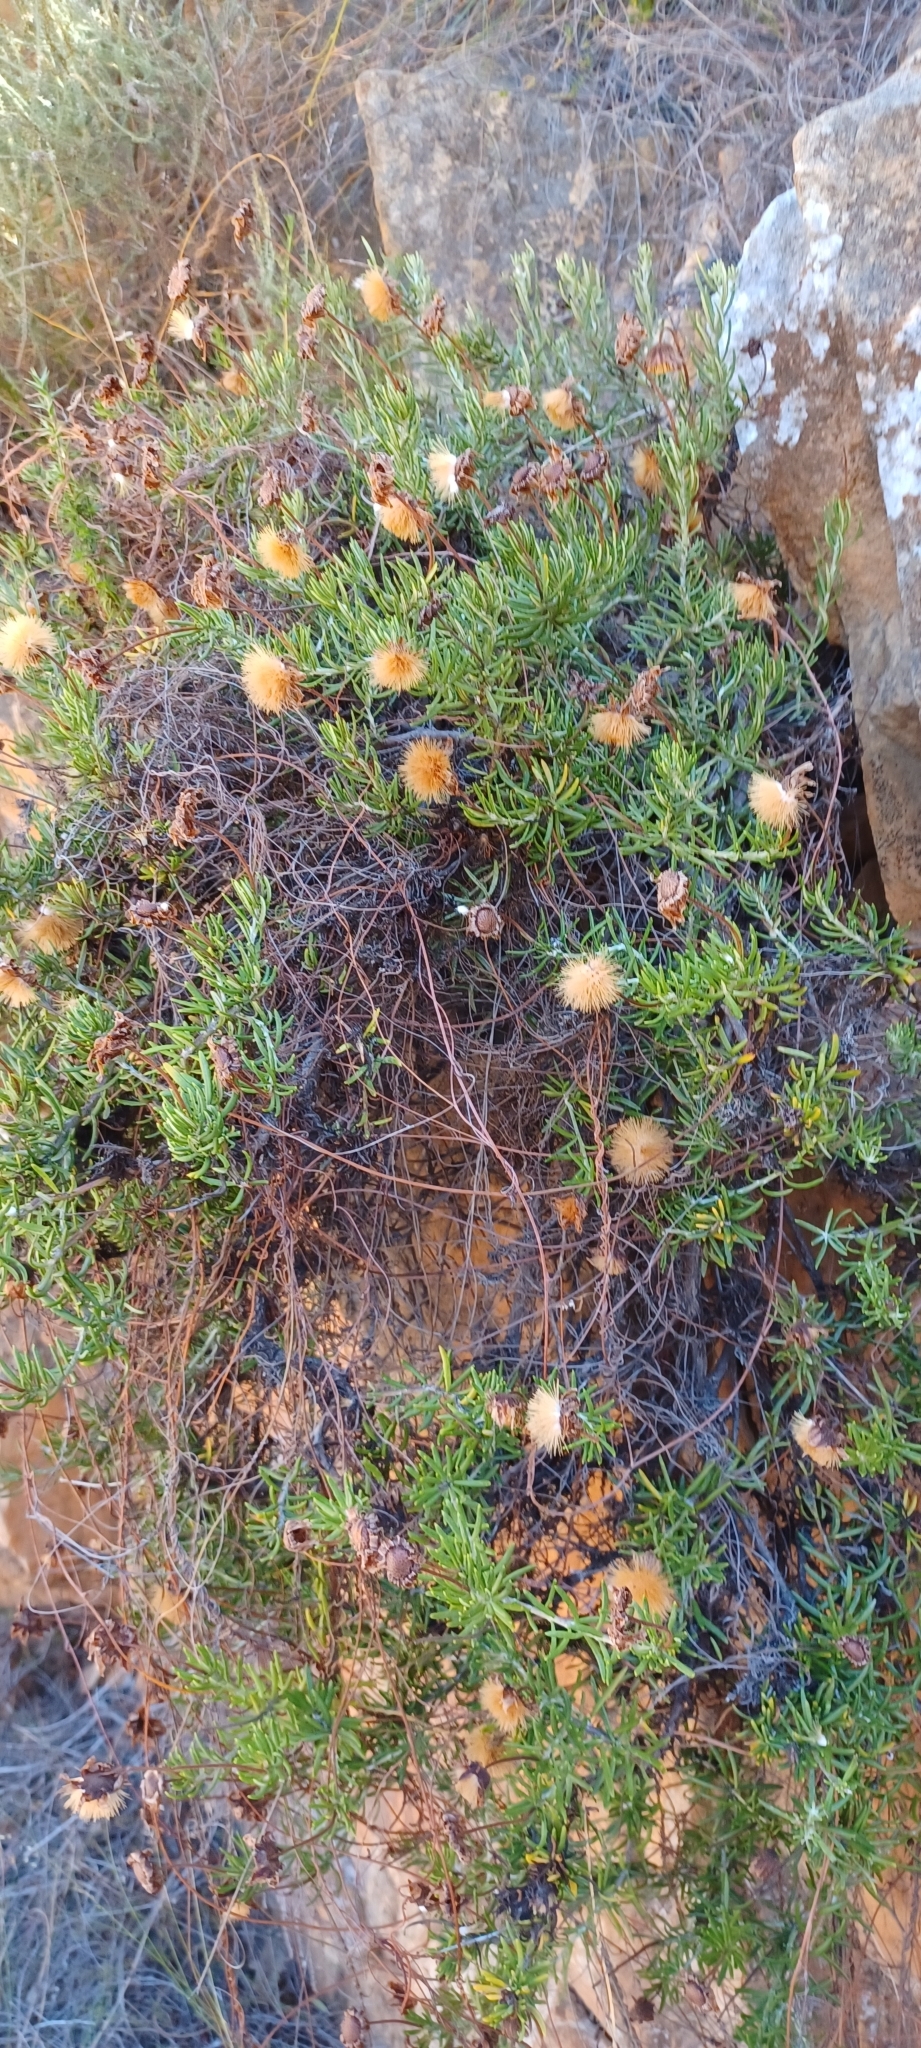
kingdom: Plantae
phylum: Tracheophyta
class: Magnoliopsida
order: Asterales
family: Asteraceae
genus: Heterolepis
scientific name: Heterolepis aliena
